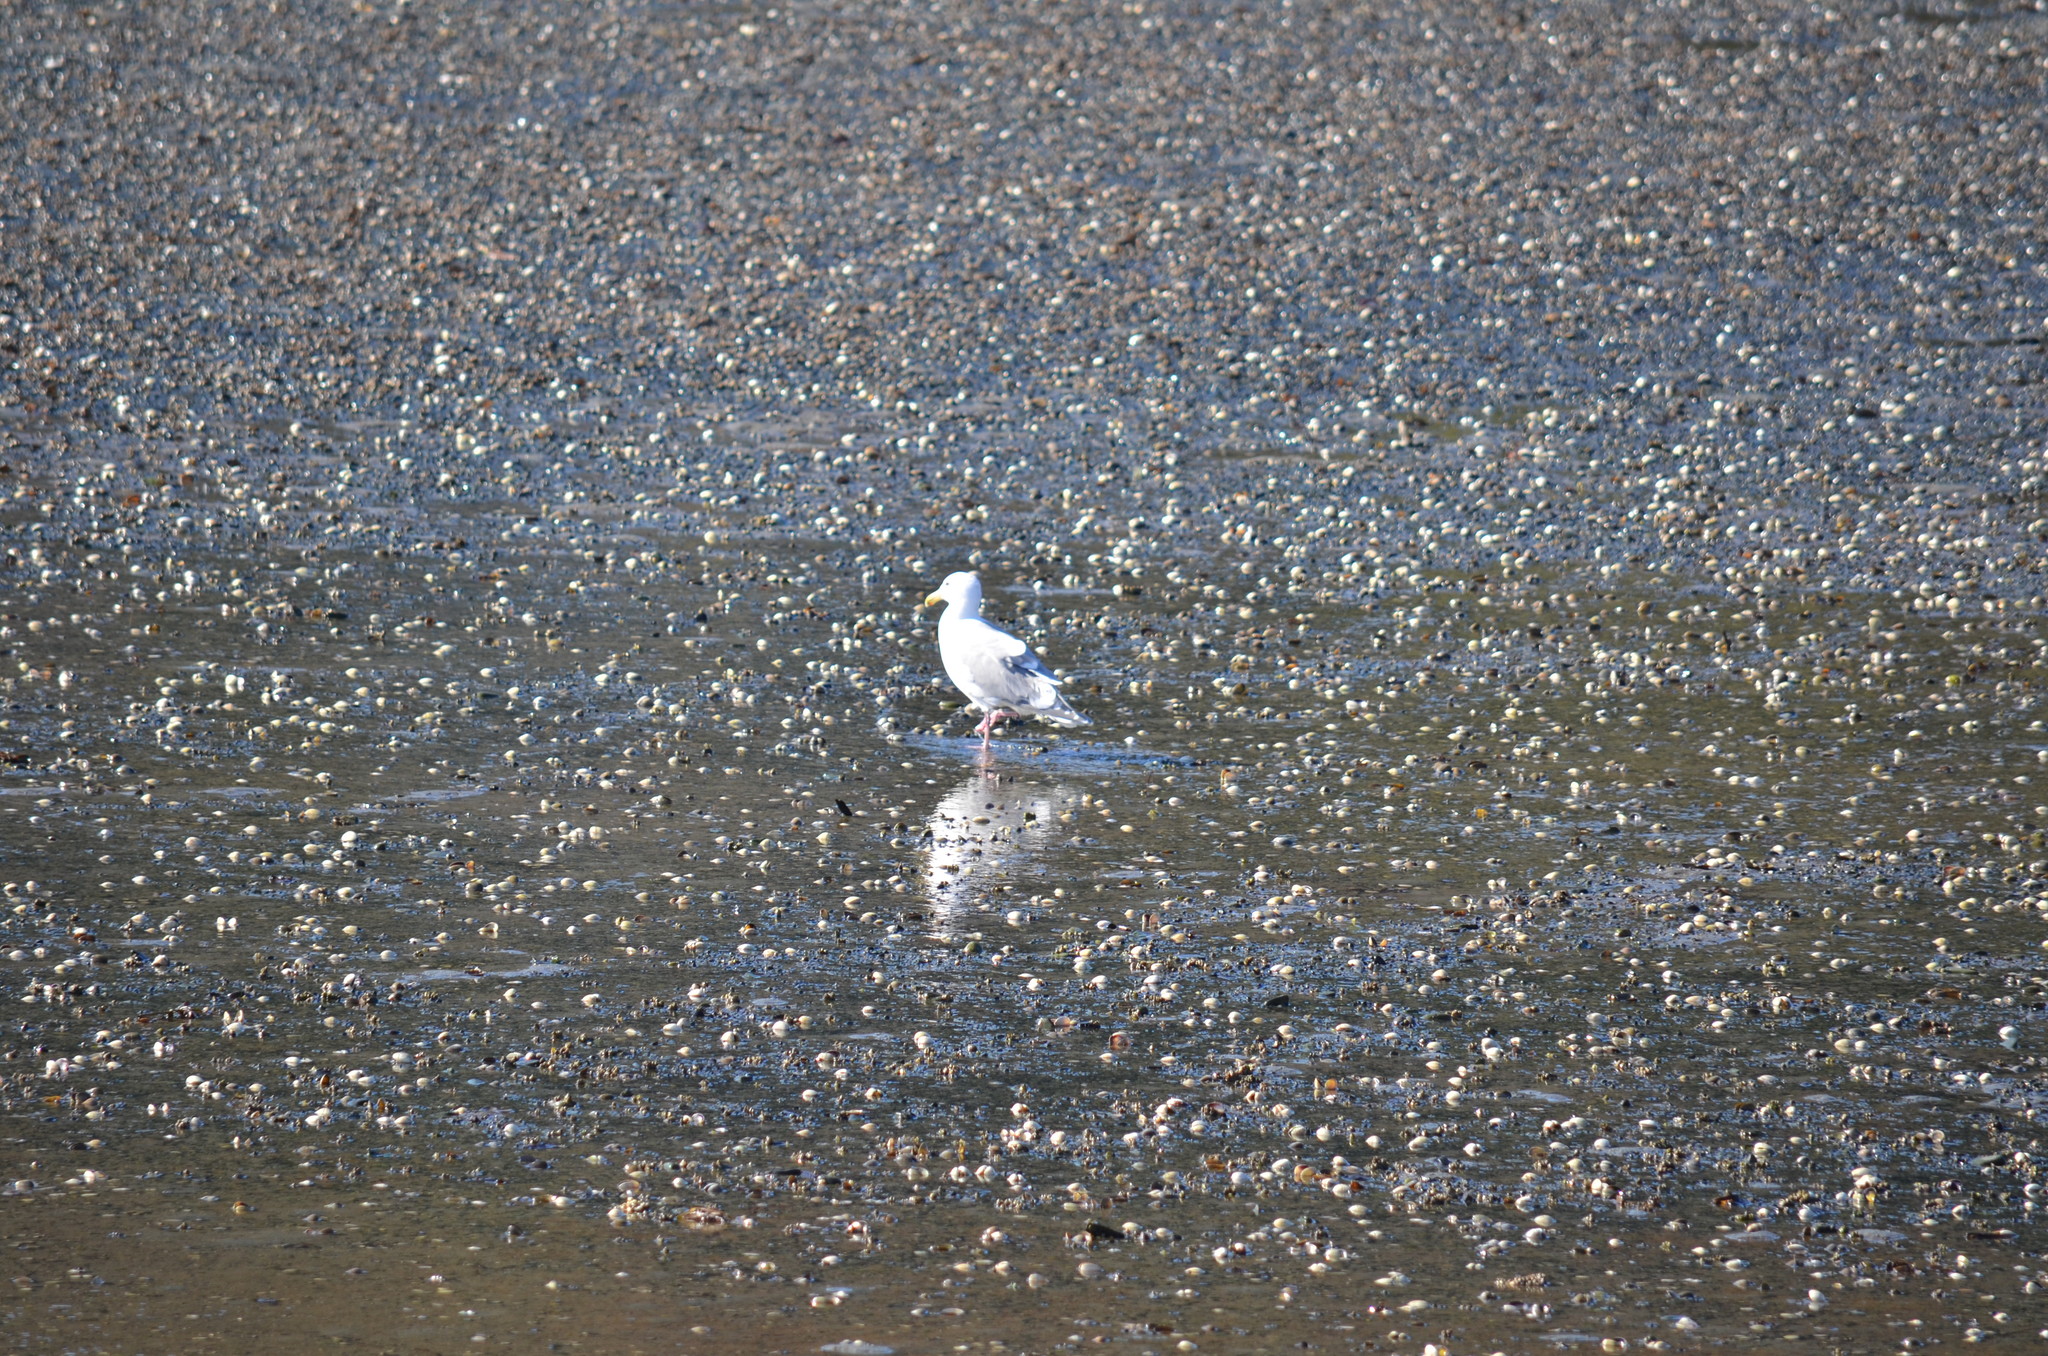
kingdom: Animalia
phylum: Chordata
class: Aves
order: Charadriiformes
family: Laridae
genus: Larus
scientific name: Larus
